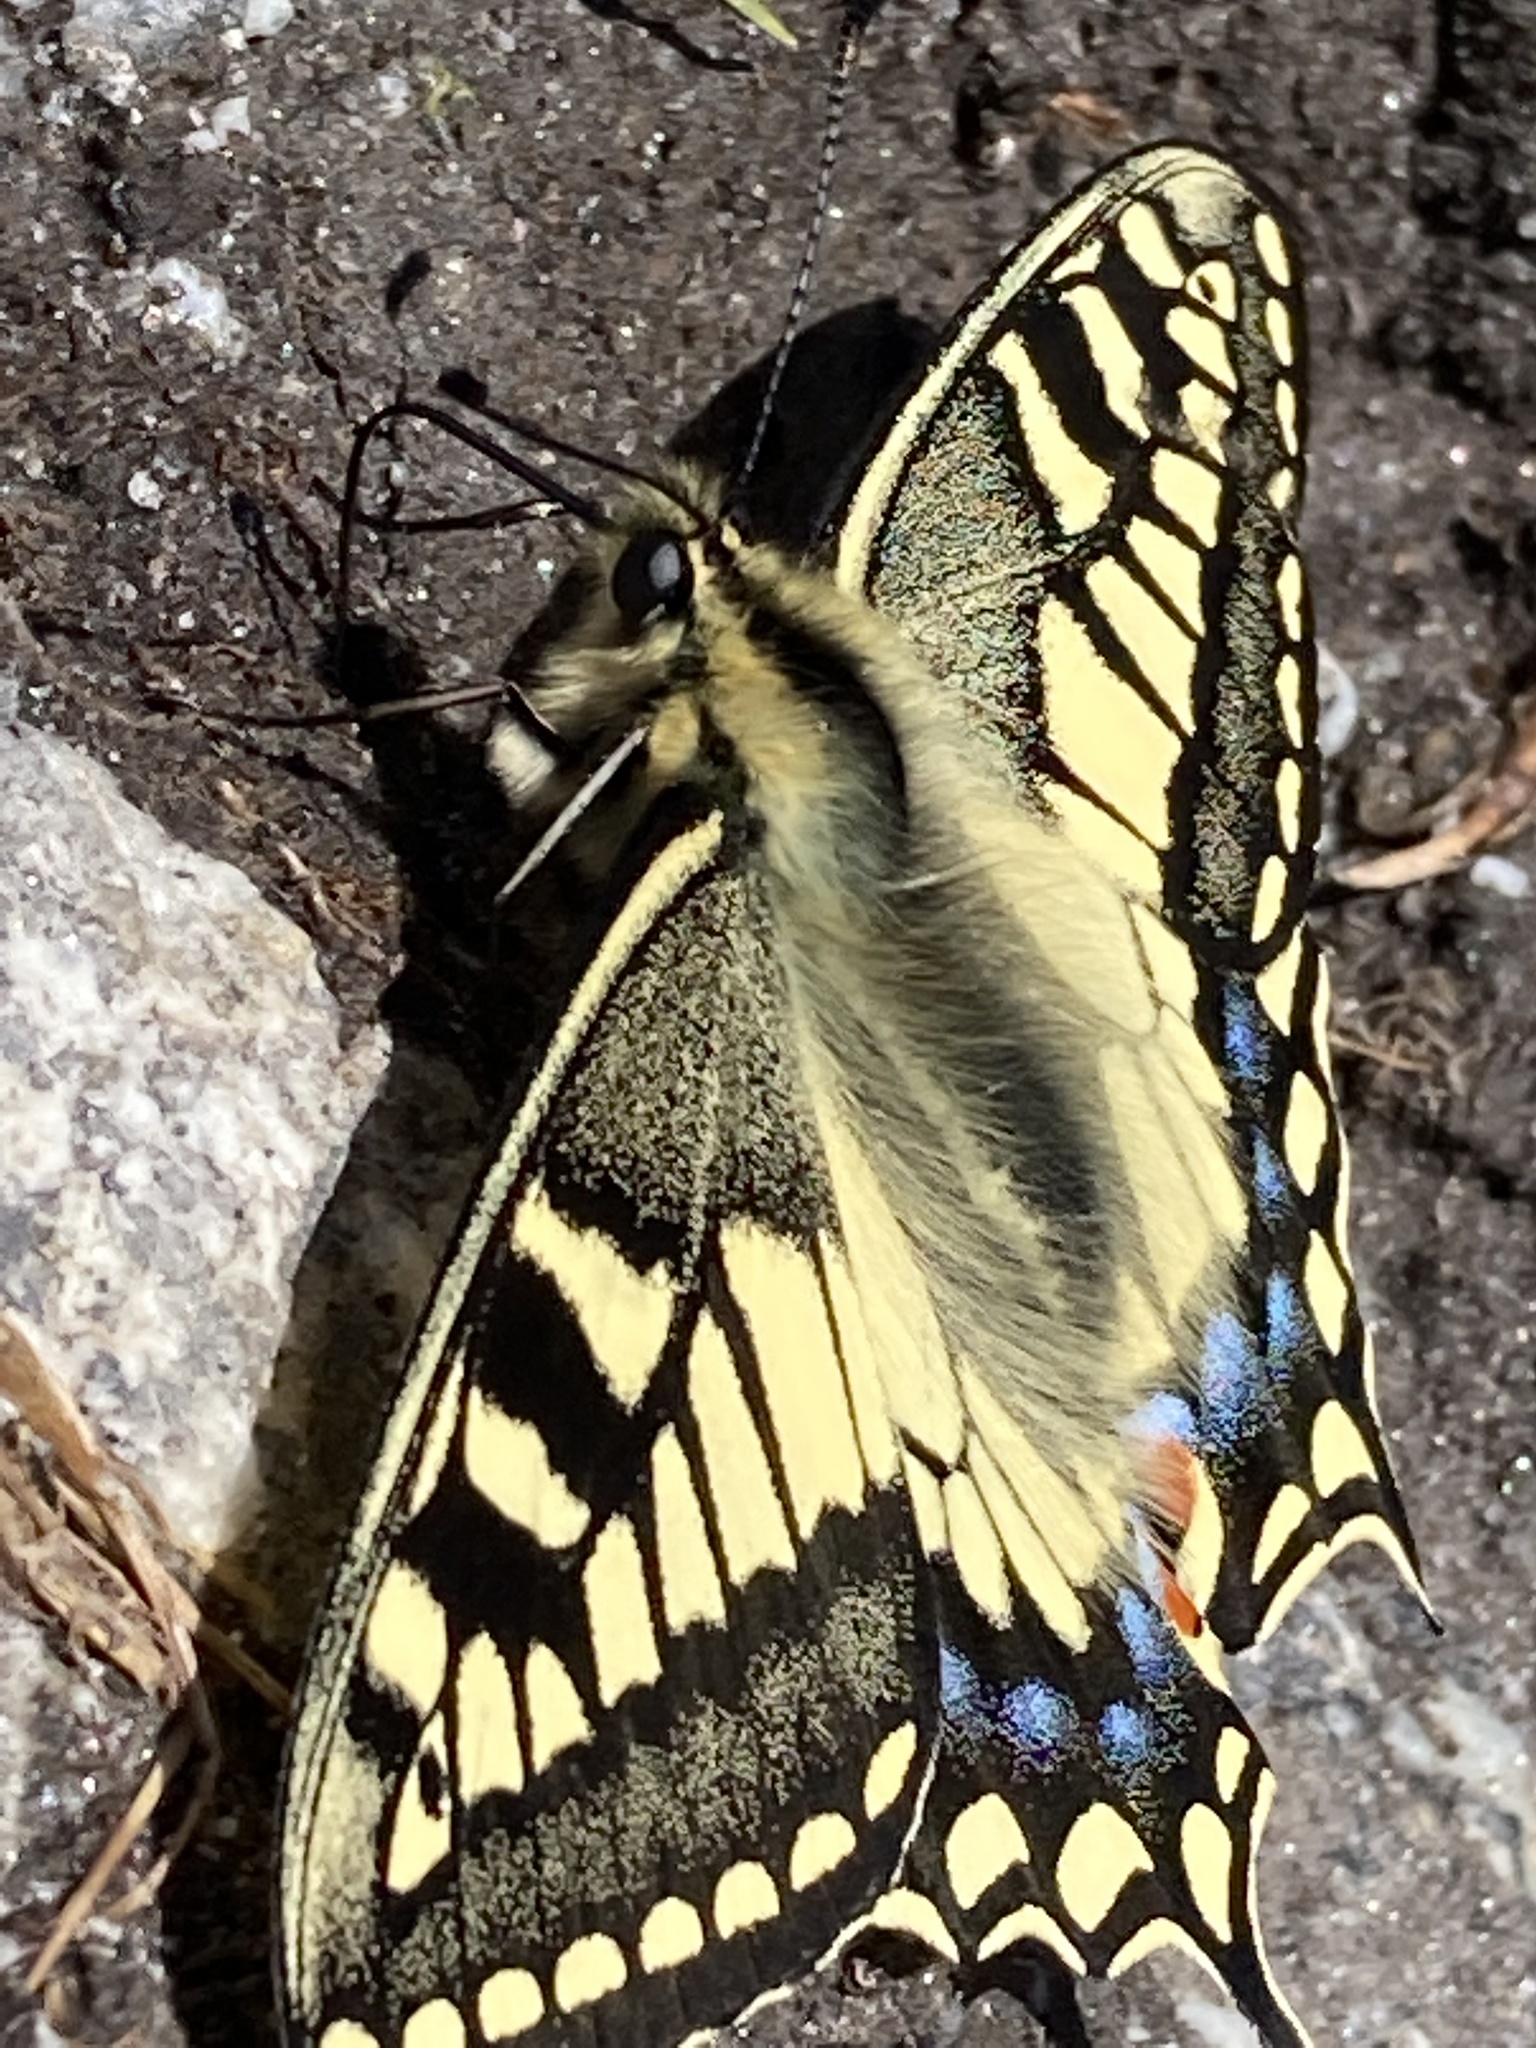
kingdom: Animalia
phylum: Arthropoda
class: Insecta
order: Lepidoptera
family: Papilionidae
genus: Papilio
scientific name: Papilio machaon
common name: Swallowtail
